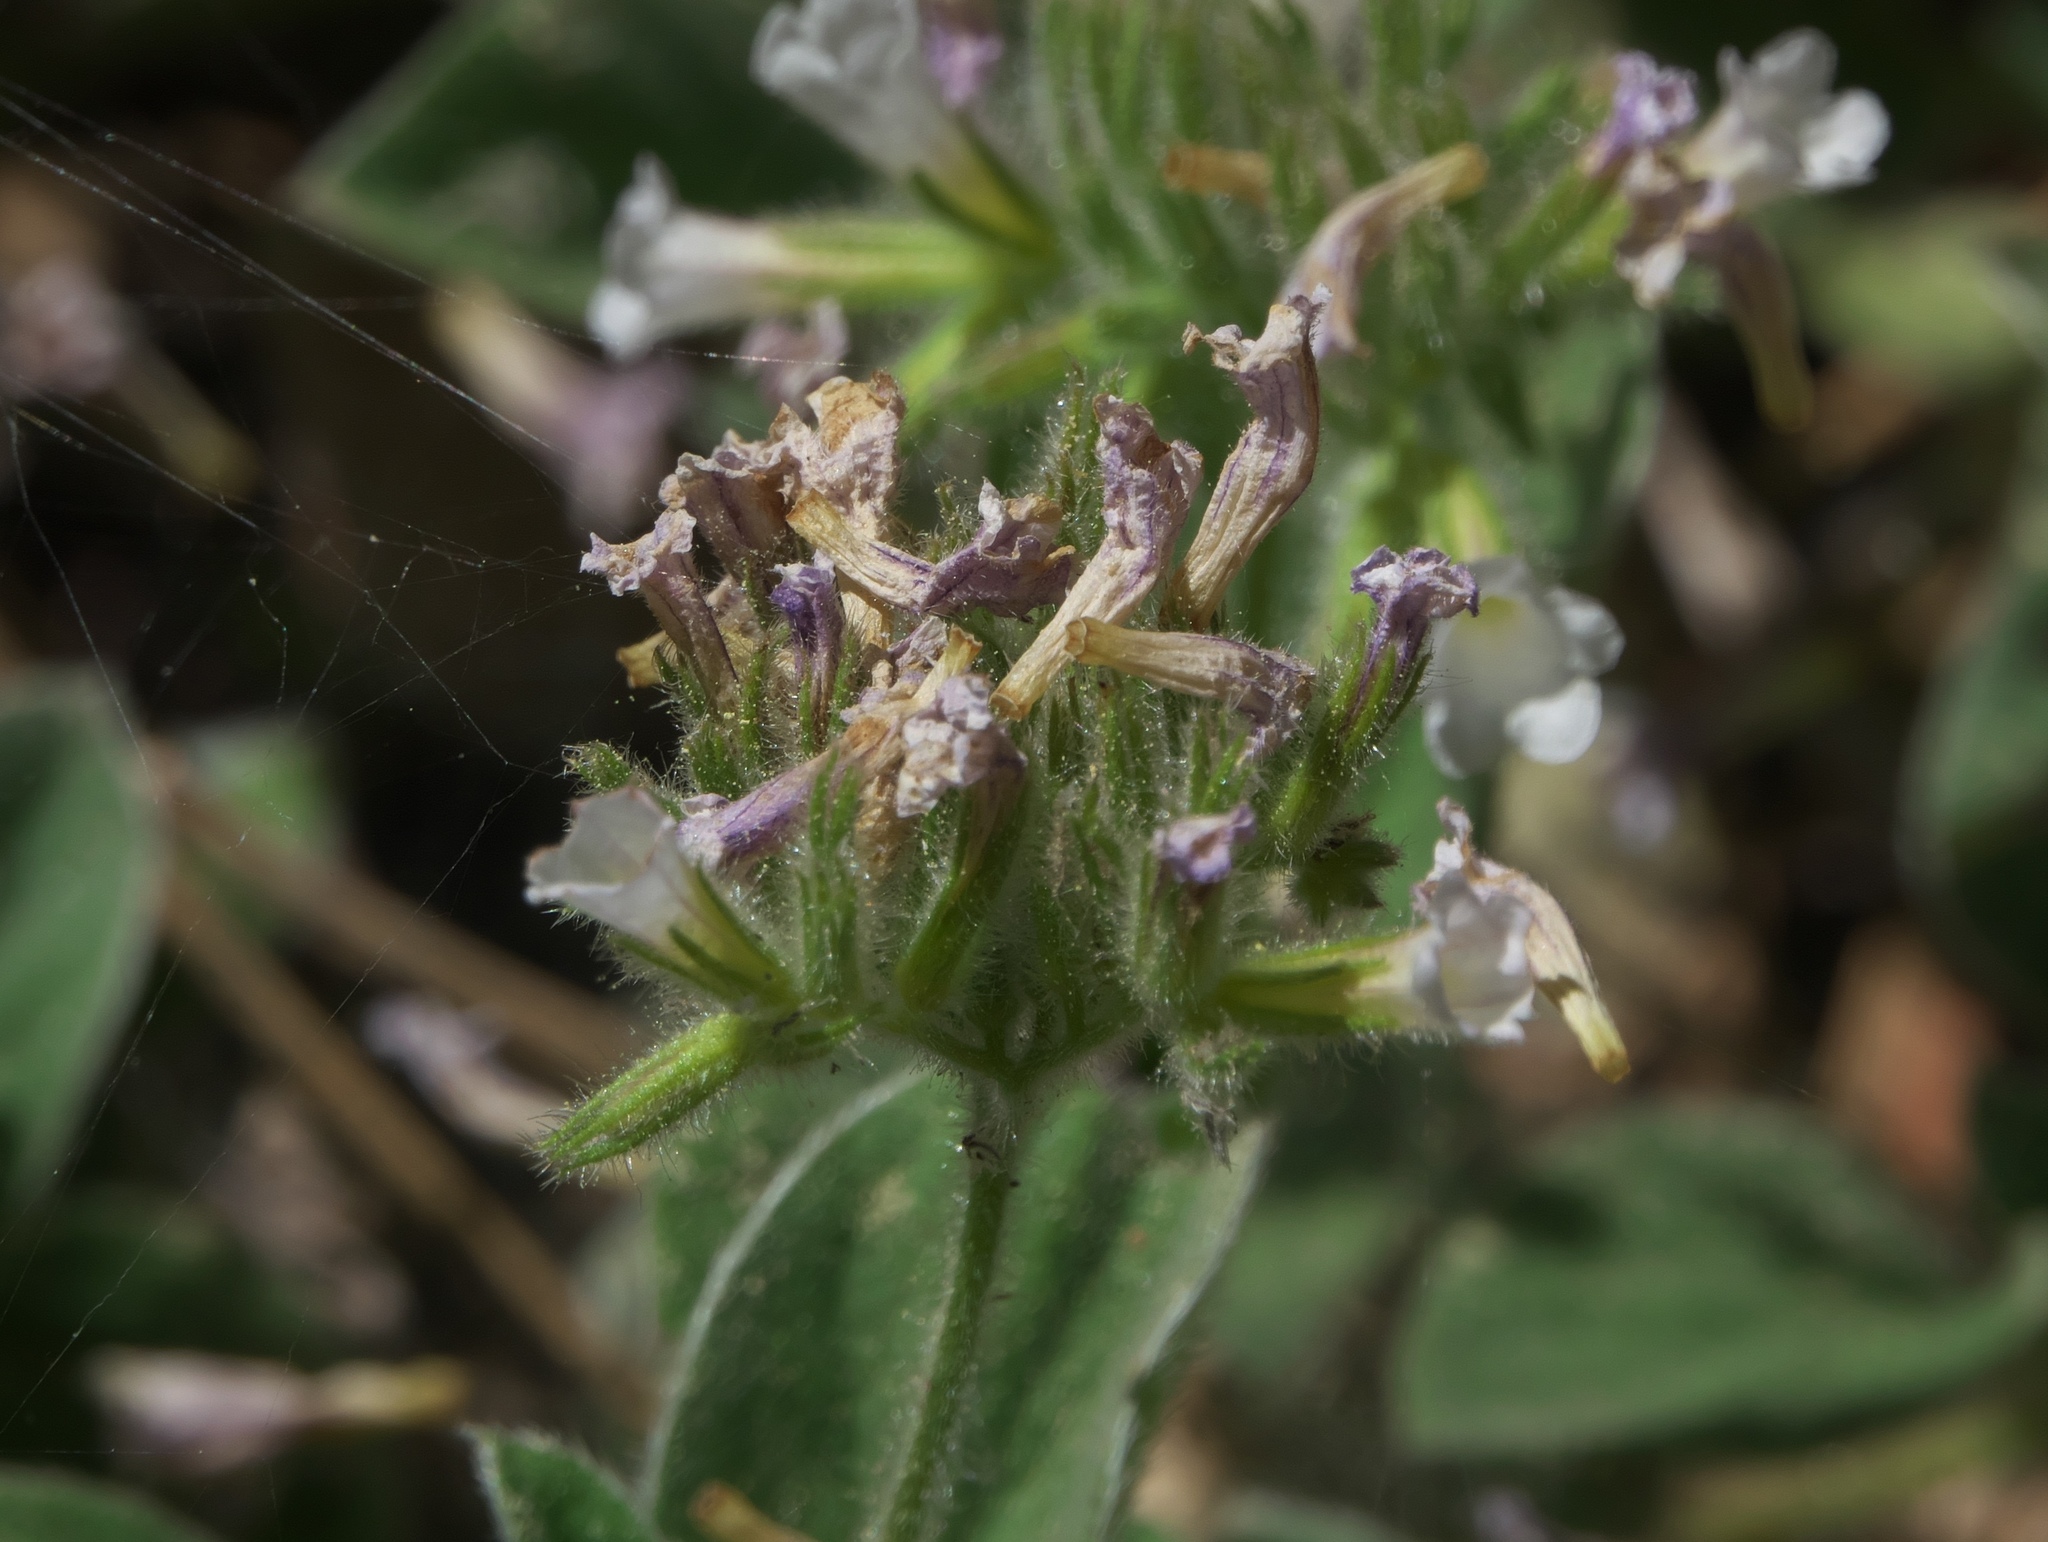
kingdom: Plantae
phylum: Tracheophyta
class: Magnoliopsida
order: Boraginales
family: Hydrophyllaceae
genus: Draperia
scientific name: Draperia systyla
